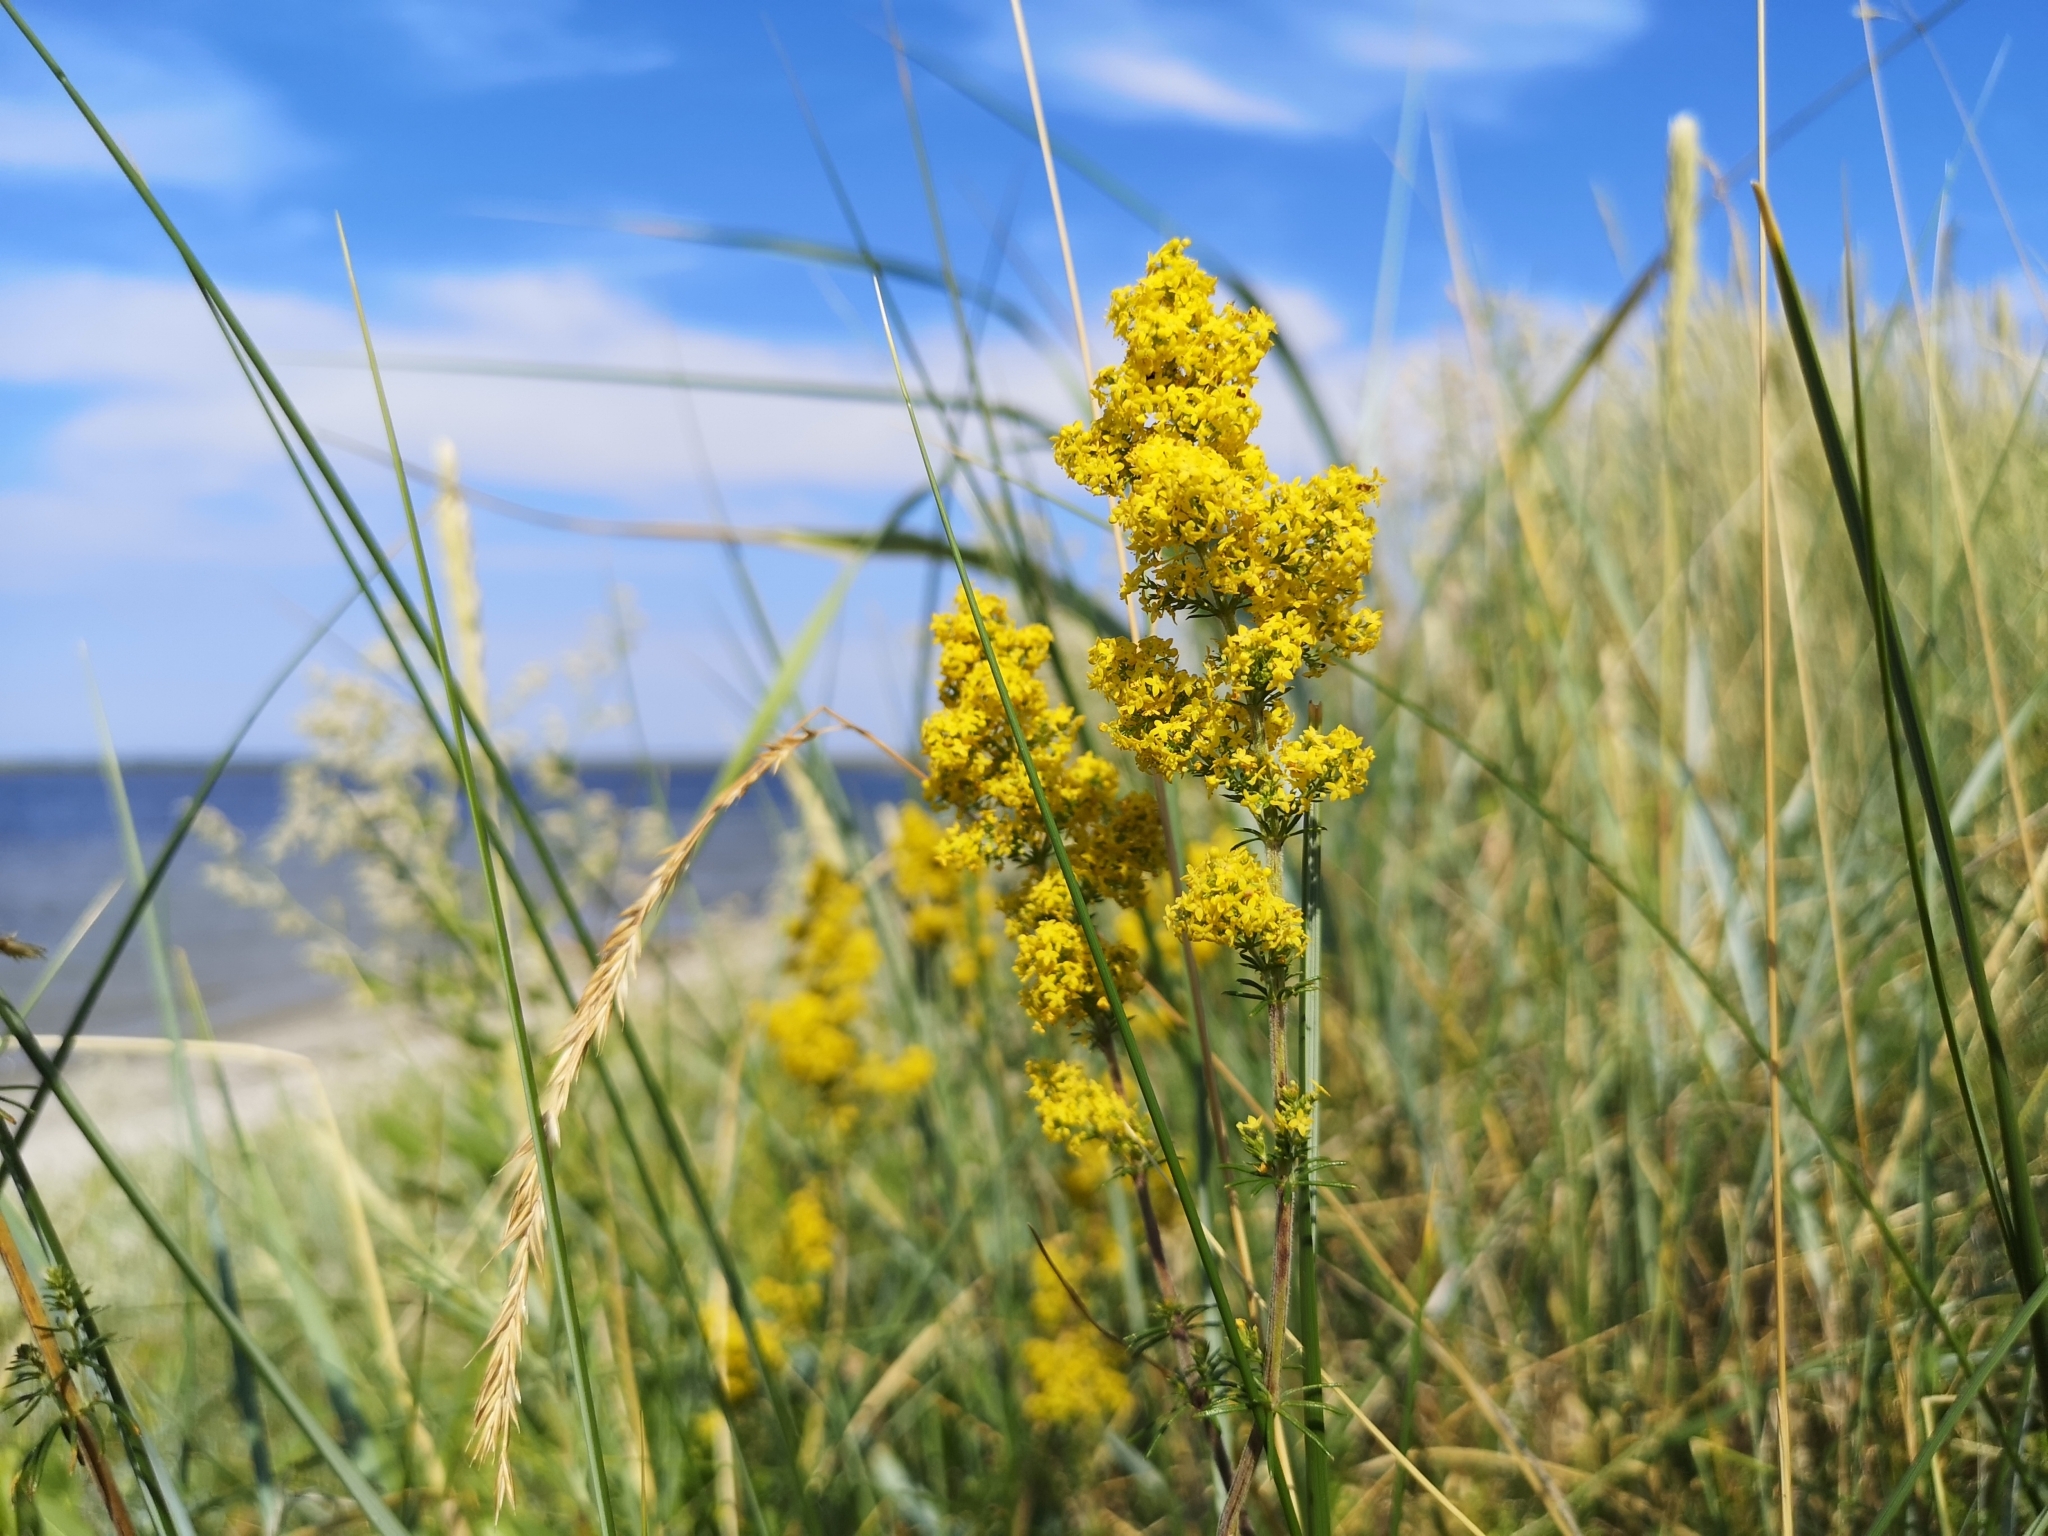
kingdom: Plantae
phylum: Tracheophyta
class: Magnoliopsida
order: Gentianales
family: Rubiaceae
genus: Galium
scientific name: Galium verum
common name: Lady's bedstraw
